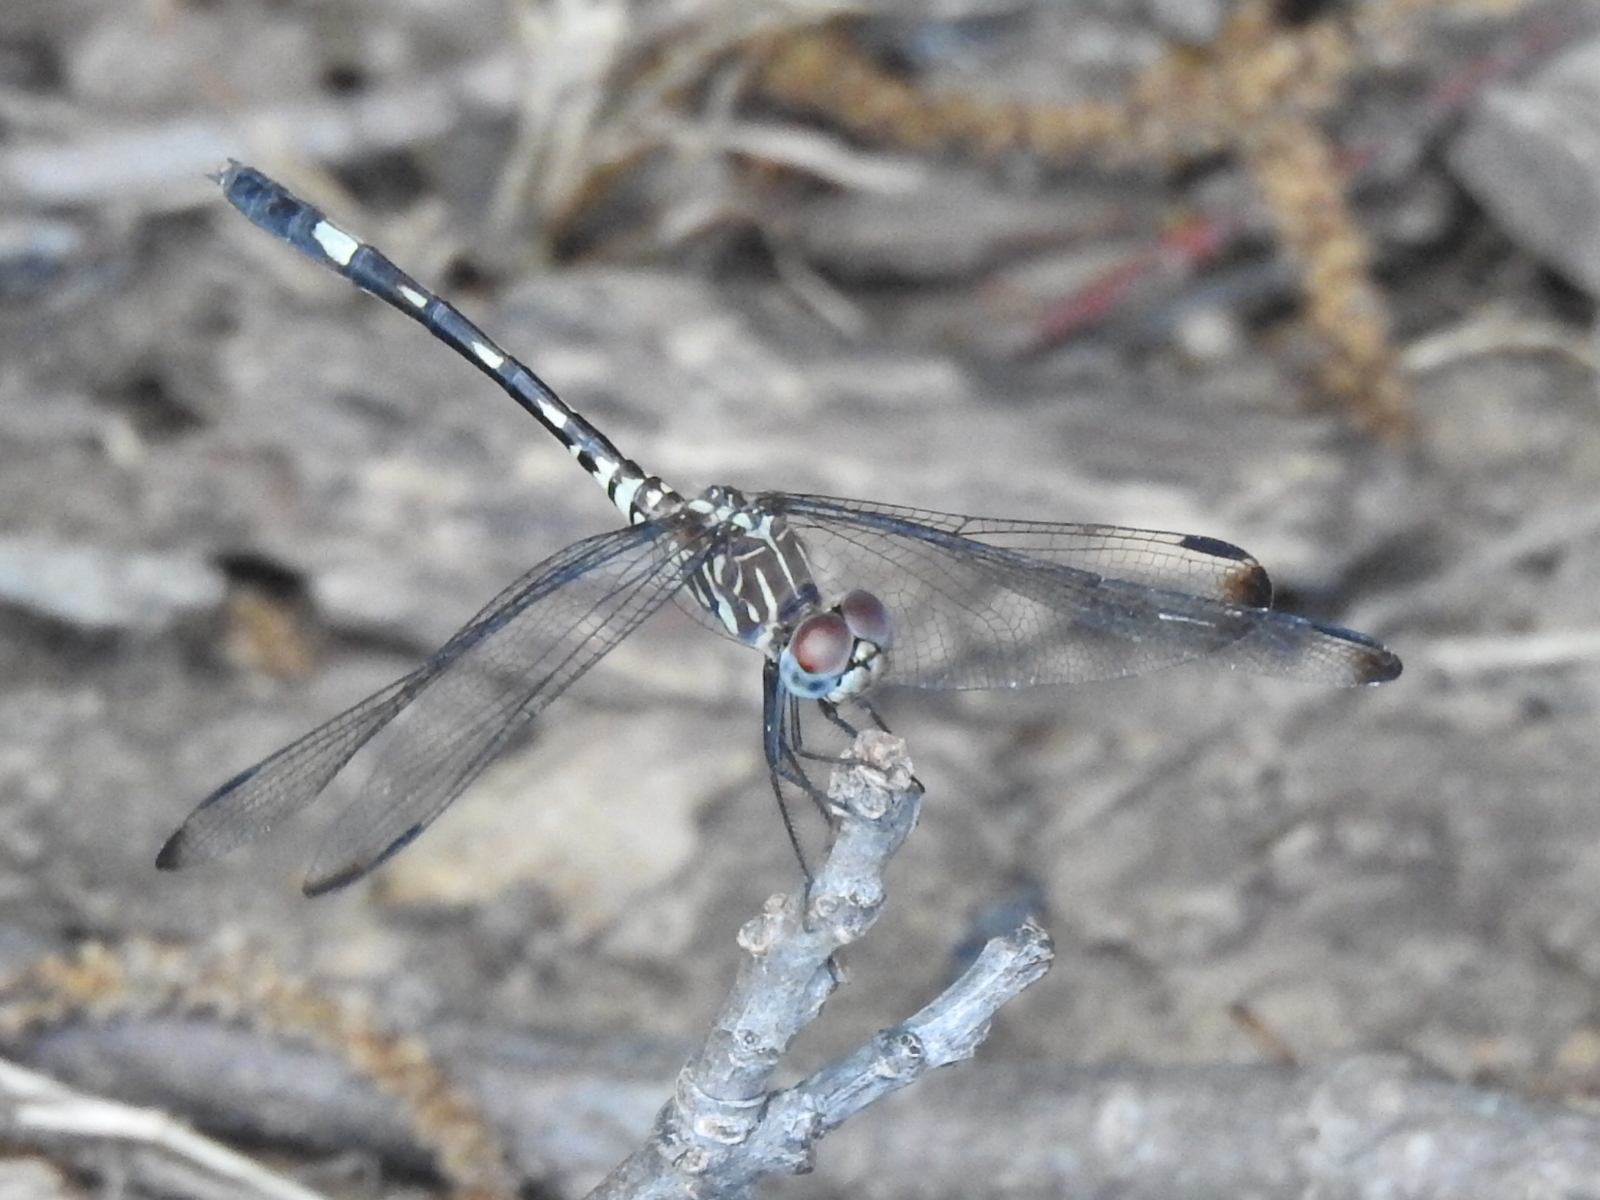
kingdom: Animalia
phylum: Arthropoda
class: Insecta
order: Odonata
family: Libellulidae
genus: Dythemis
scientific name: Dythemis velox
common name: Swift setwing
